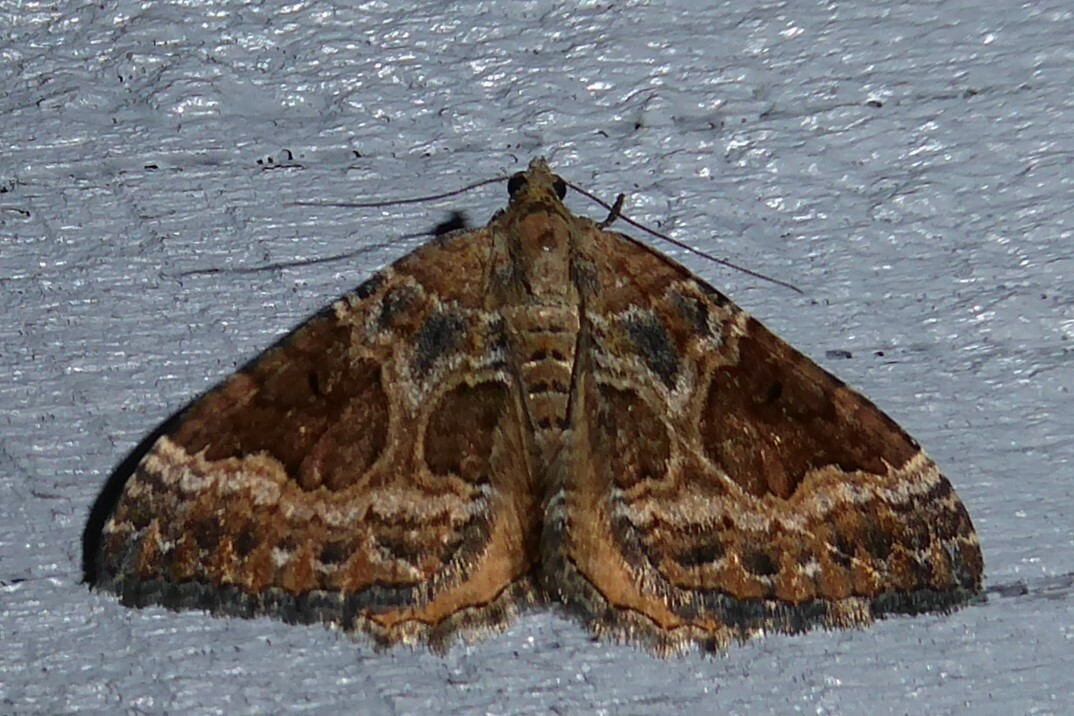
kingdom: Animalia
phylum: Arthropoda
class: Insecta
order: Lepidoptera
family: Geometridae
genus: Hydriomena
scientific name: Hydriomena deltoidata
